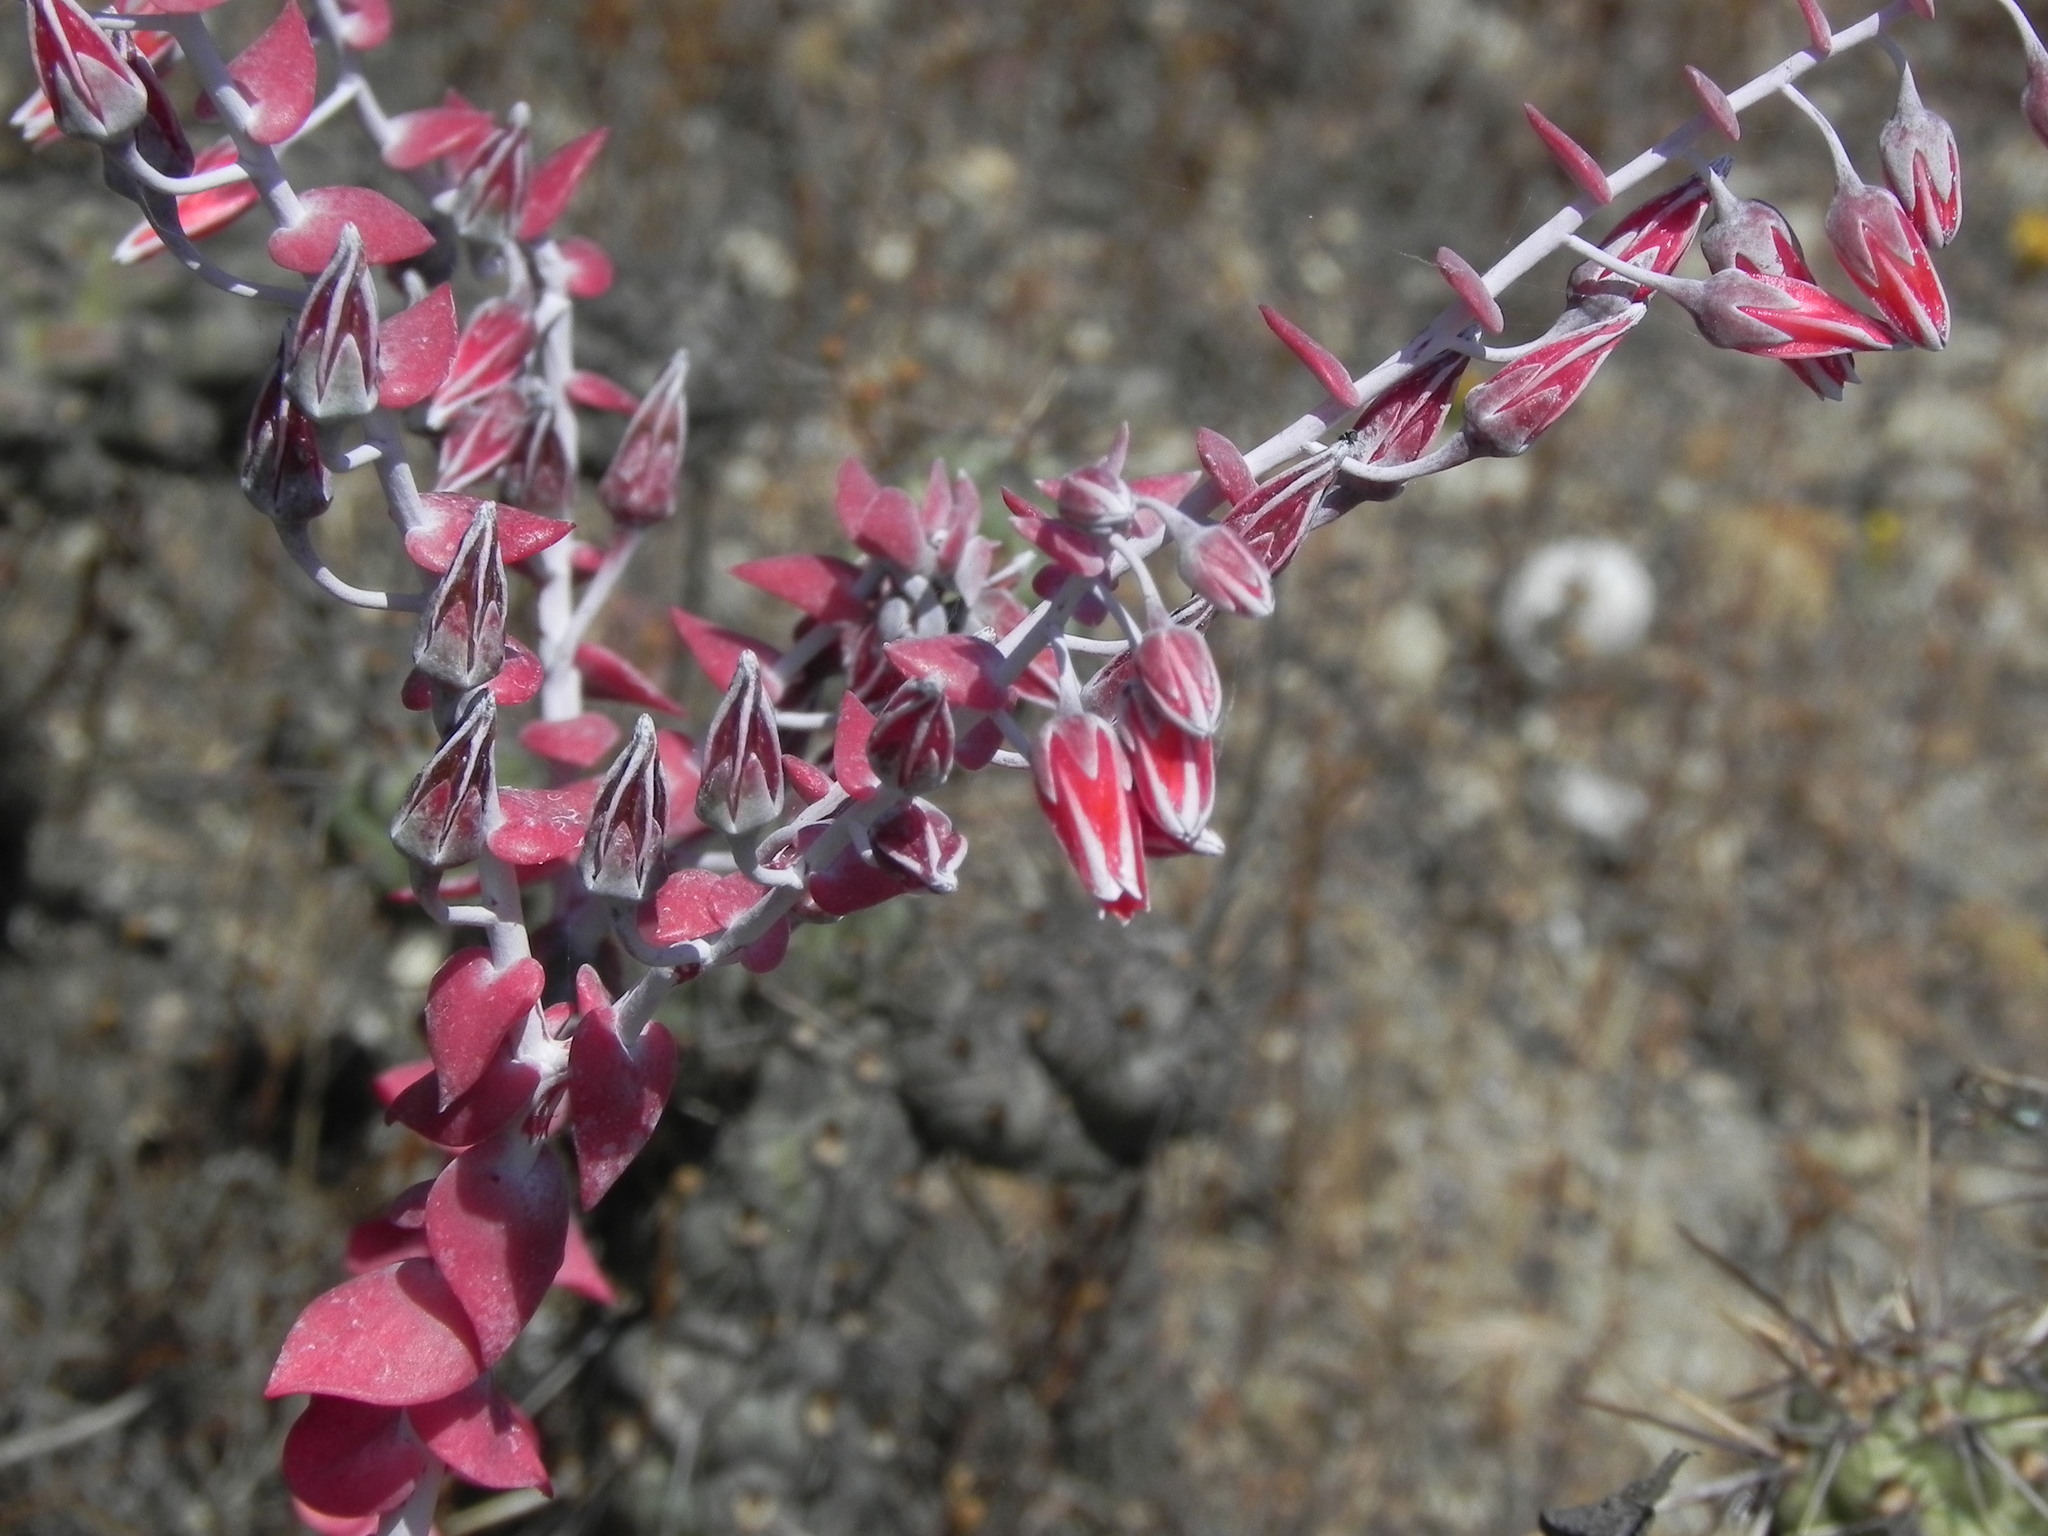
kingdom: Plantae
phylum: Tracheophyta
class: Magnoliopsida
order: Saxifragales
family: Crassulaceae
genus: Dudleya
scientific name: Dudleya pulverulenta
